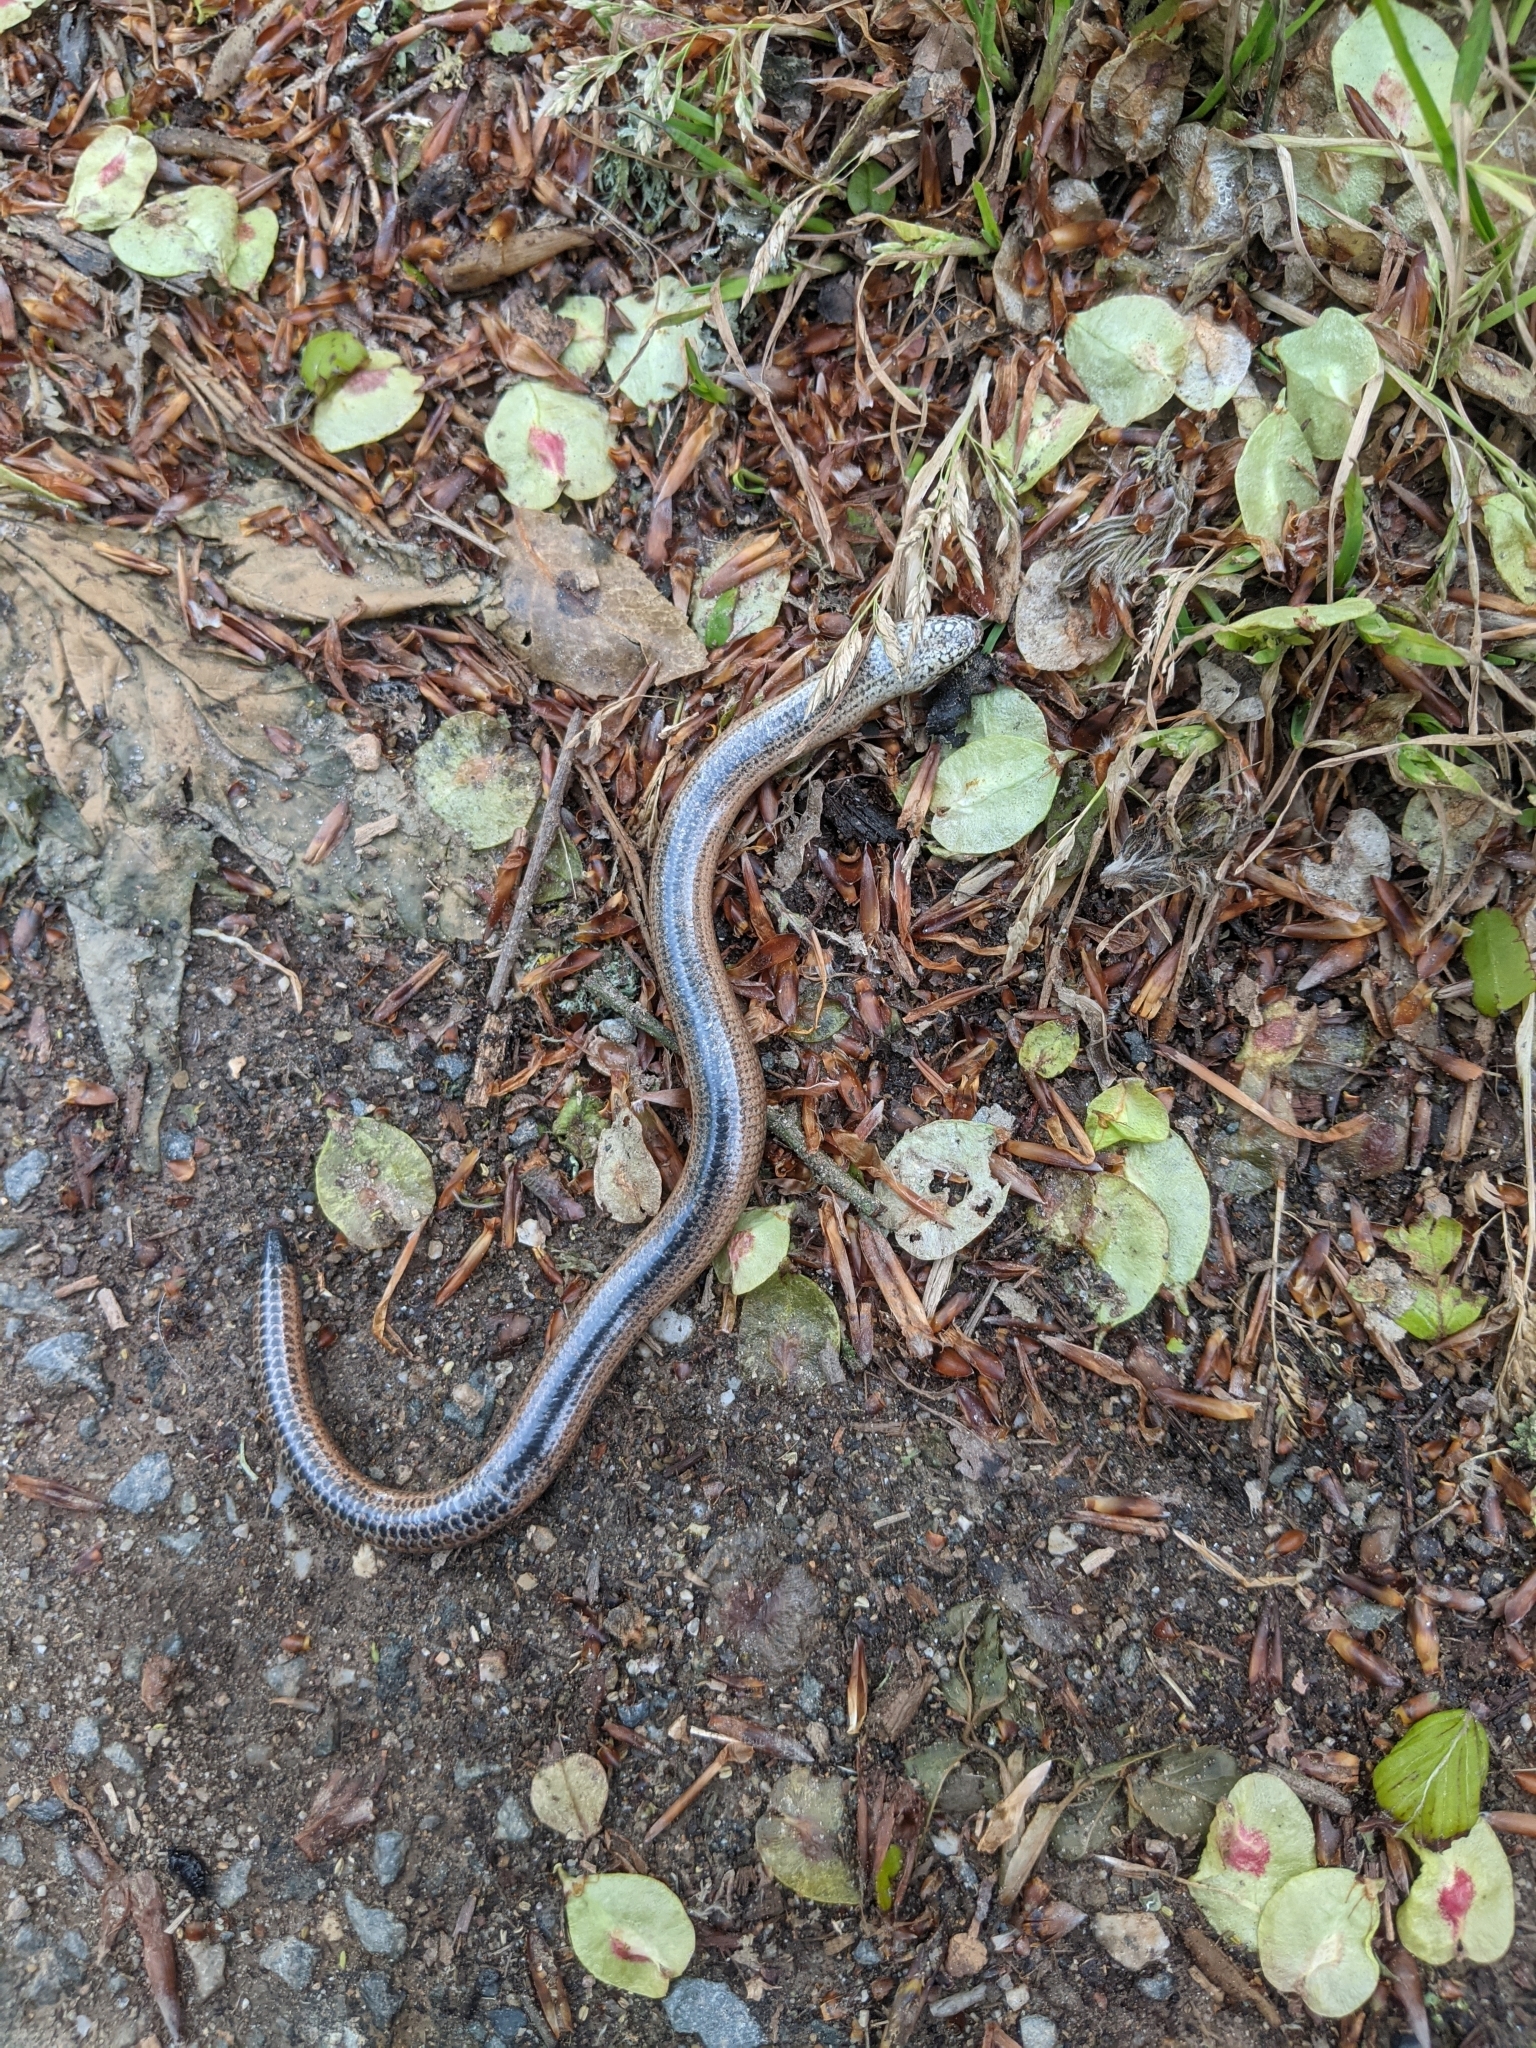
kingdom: Animalia
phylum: Chordata
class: Squamata
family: Anguidae
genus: Anguis
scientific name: Anguis fragilis
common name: Slow worm
